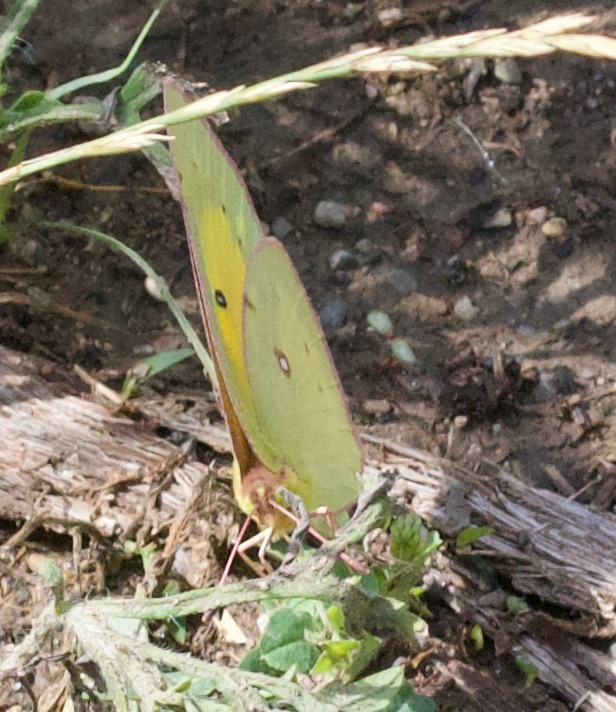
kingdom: Animalia
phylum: Arthropoda
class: Insecta
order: Lepidoptera
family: Pieridae
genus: Colias
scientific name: Colias eurytheme
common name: Alfalfa butterfly
